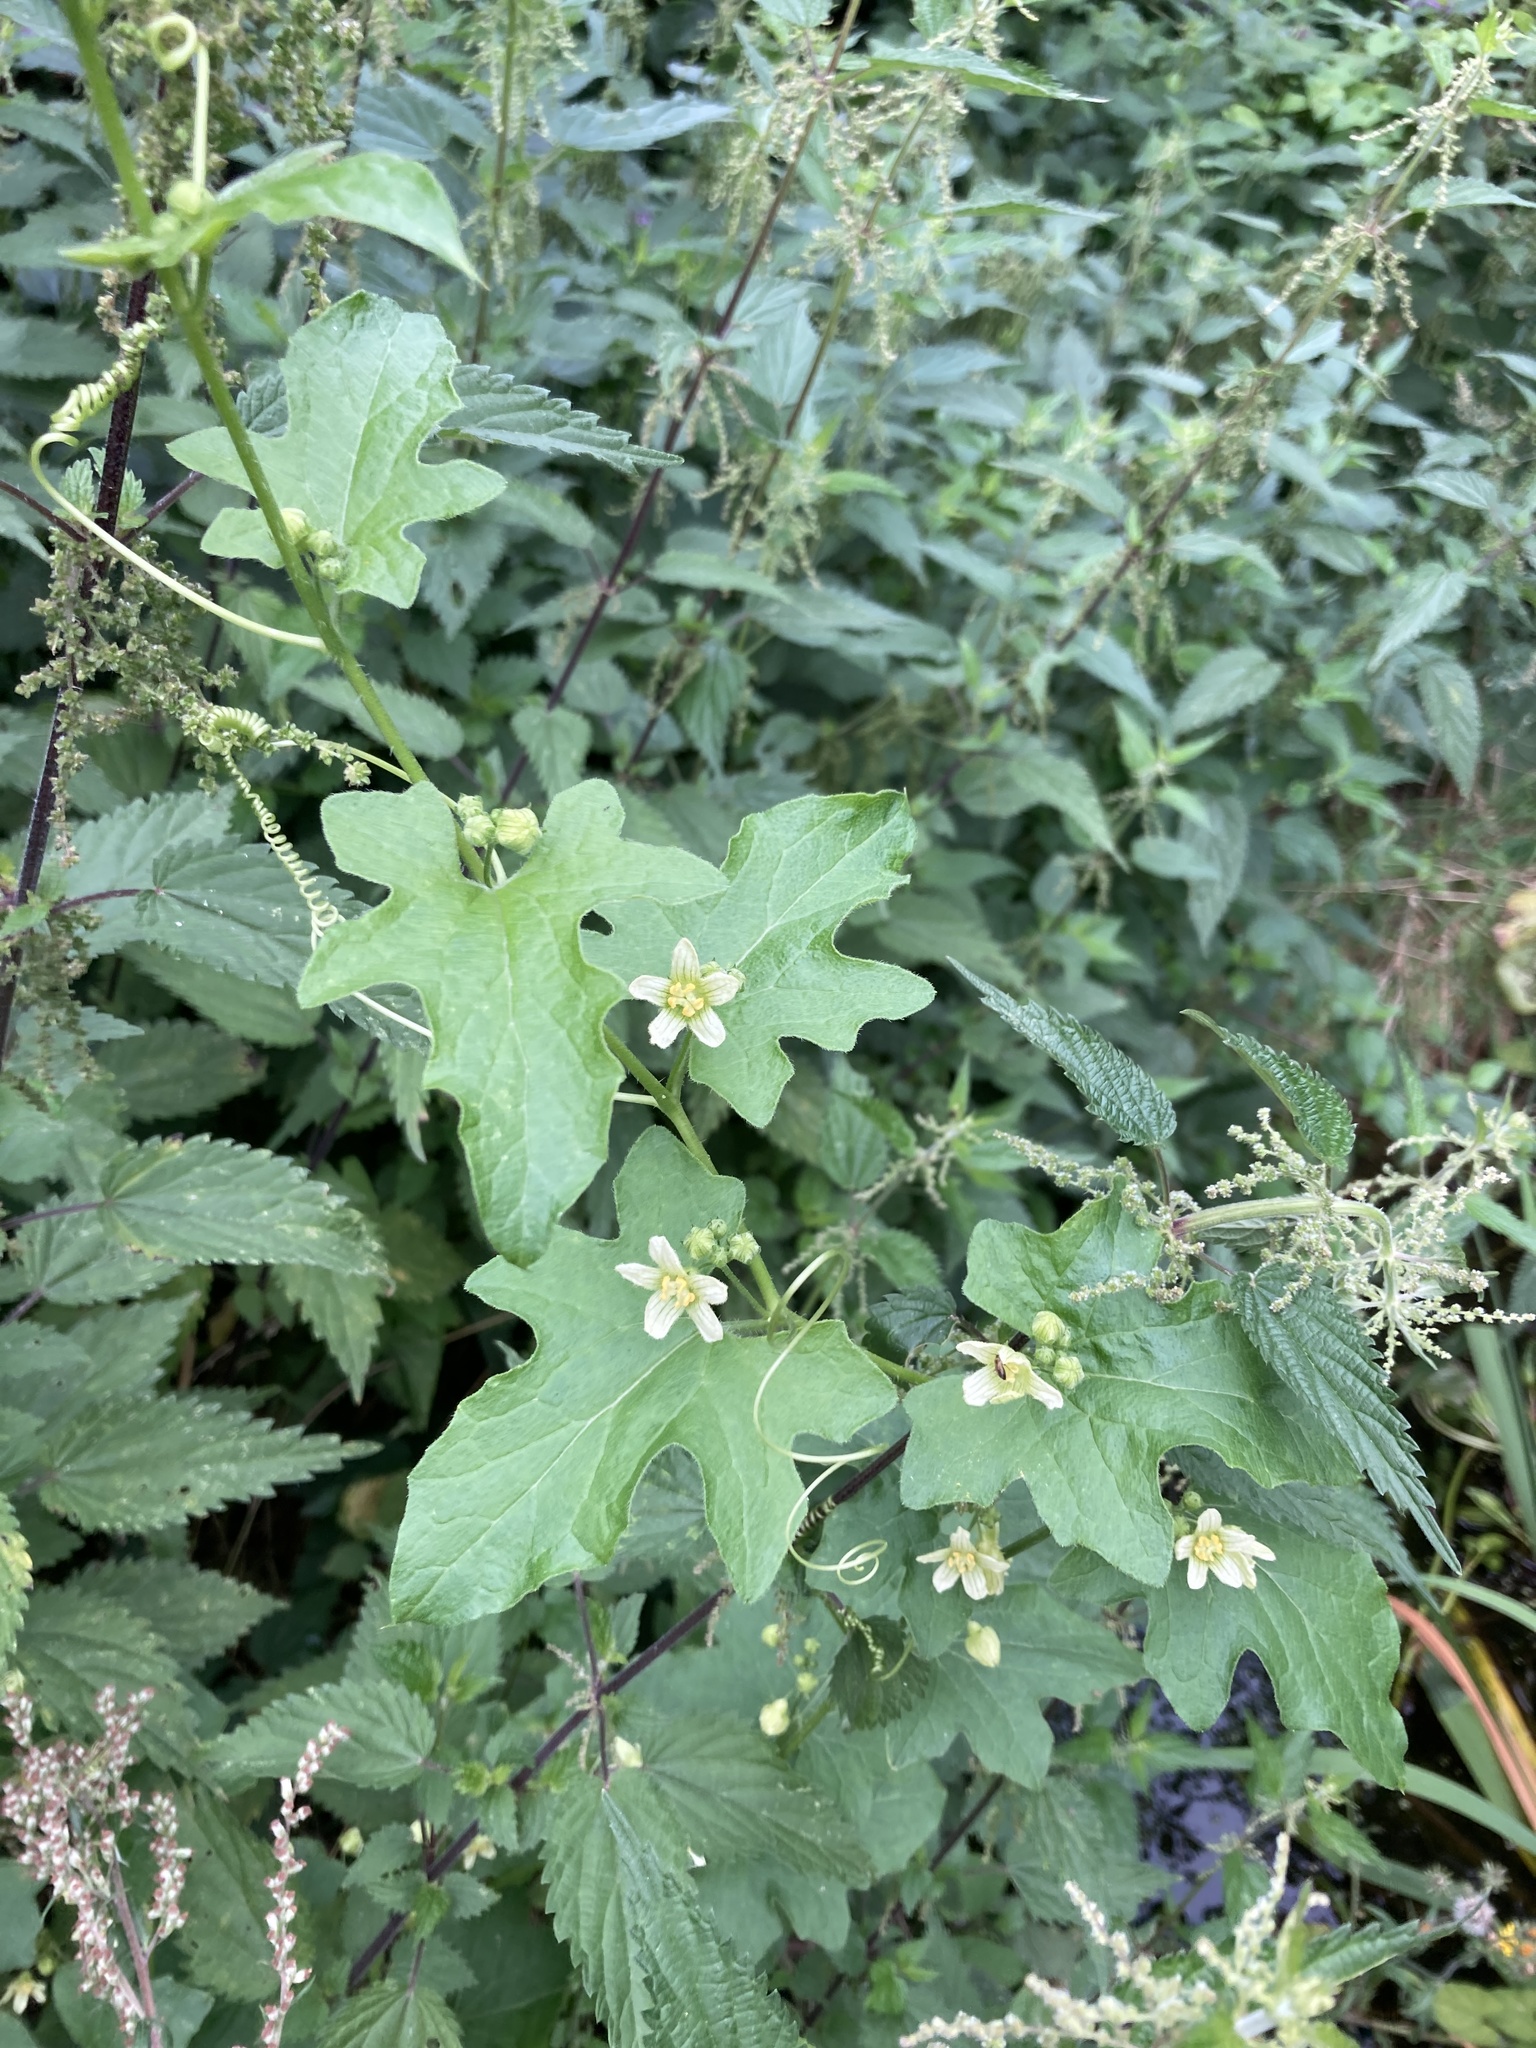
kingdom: Plantae
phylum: Tracheophyta
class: Magnoliopsida
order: Cucurbitales
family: Cucurbitaceae
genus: Bryonia
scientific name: Bryonia cretica
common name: Cretan bryony
